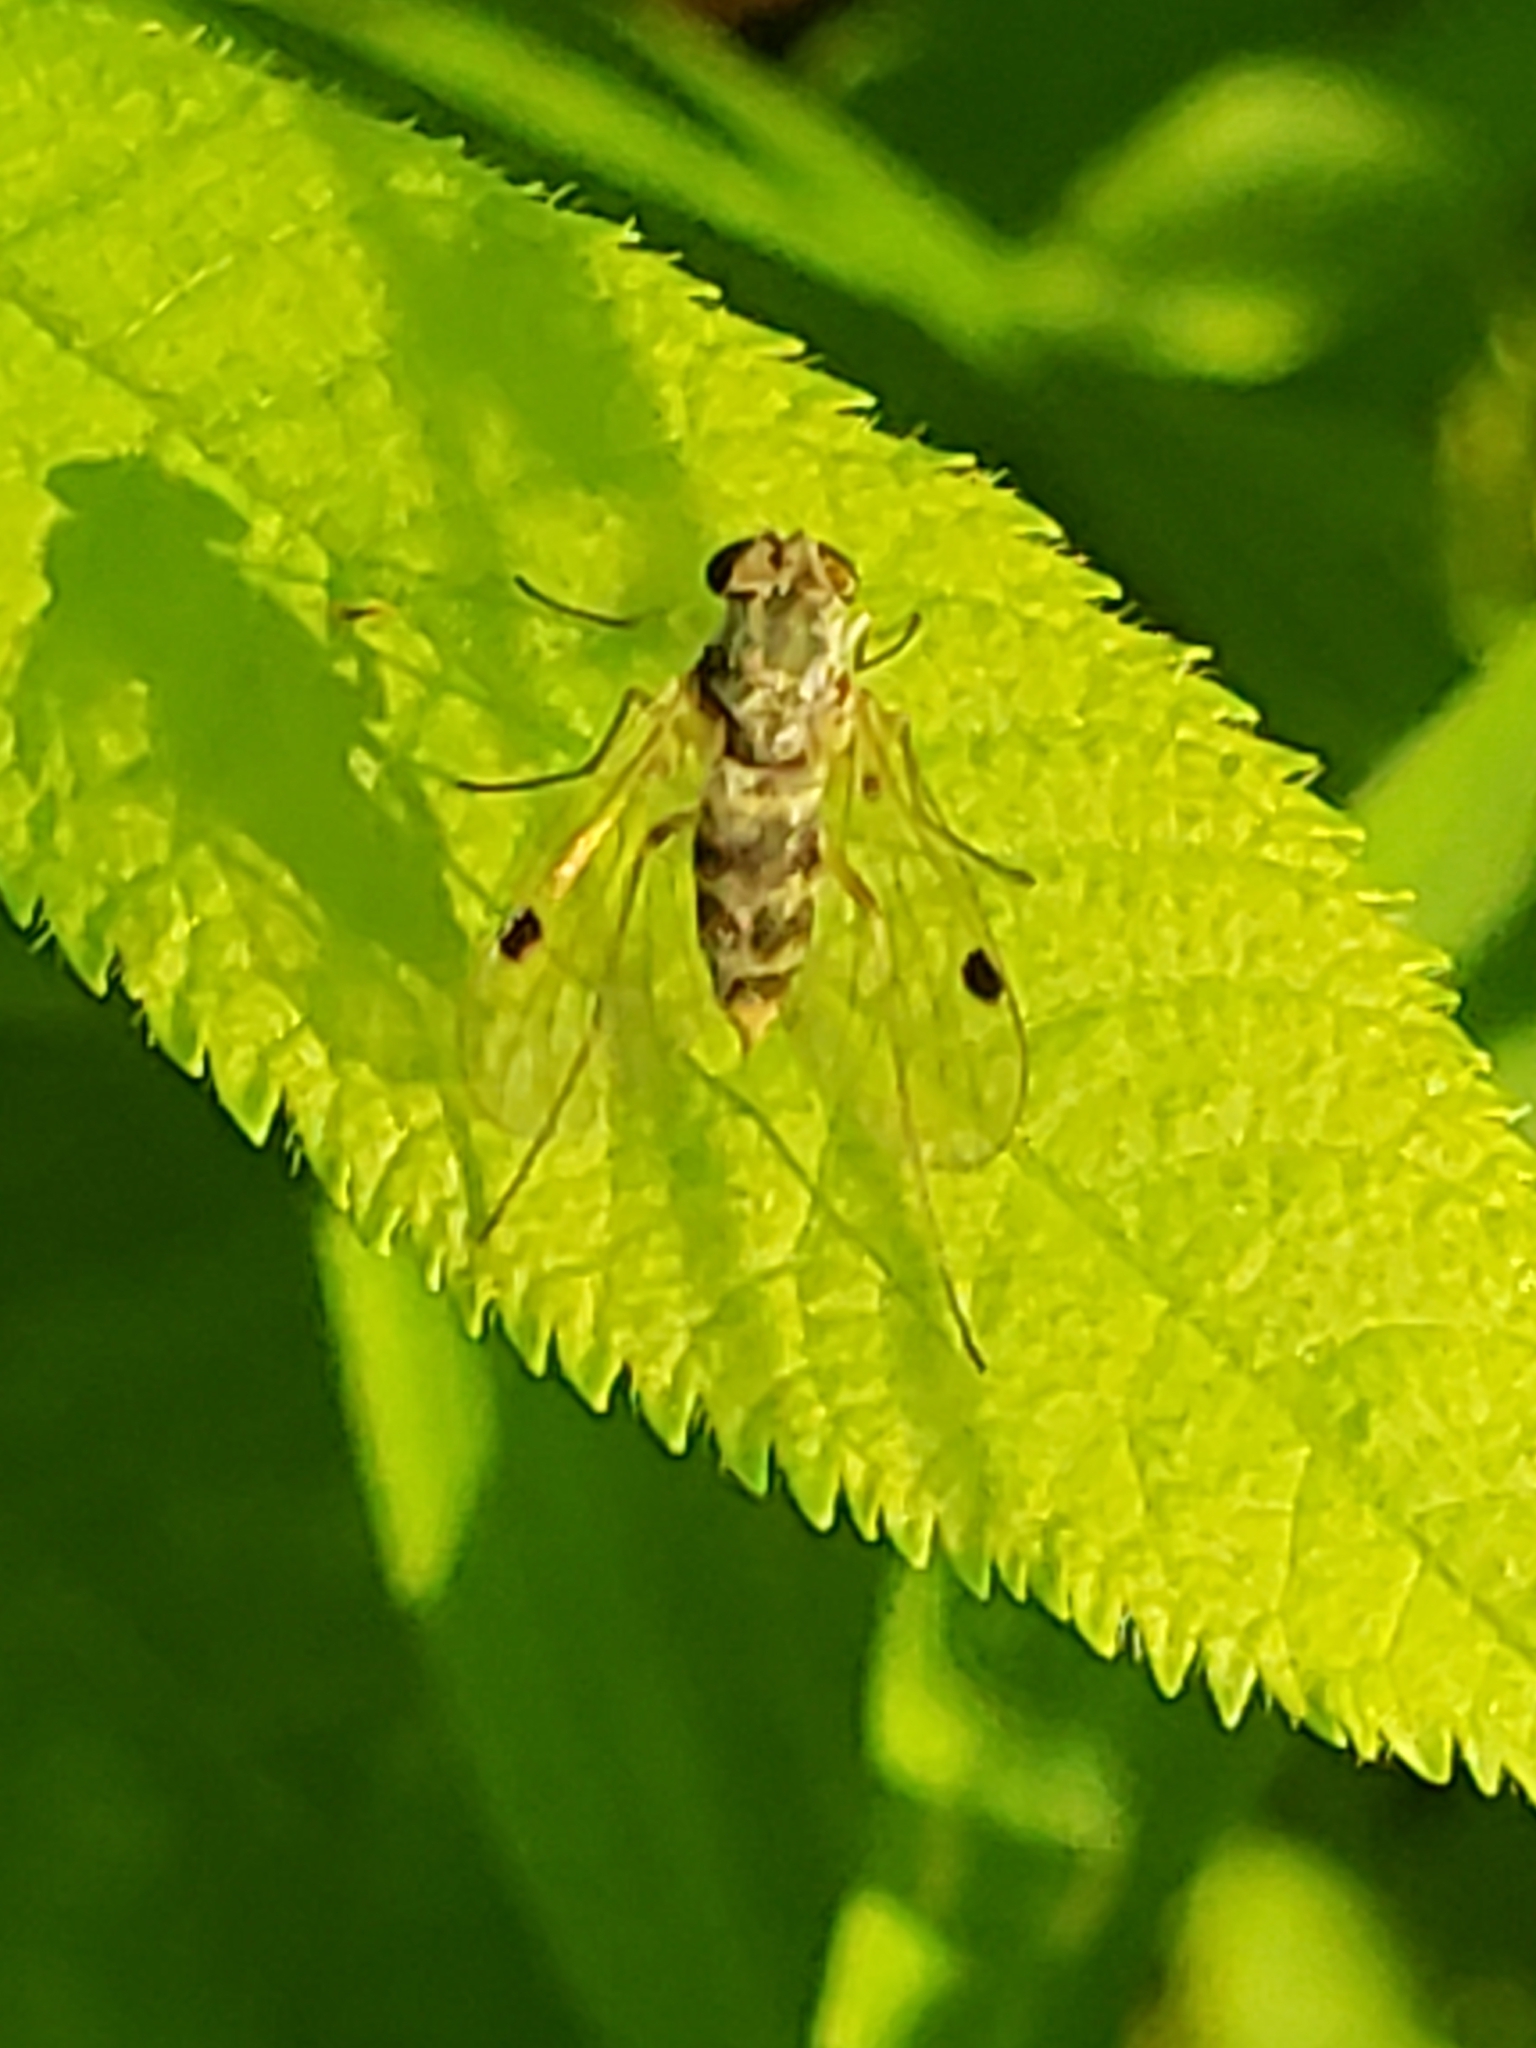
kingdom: Animalia
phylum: Arthropoda
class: Insecta
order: Diptera
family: Rhagionidae
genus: Chrysopilus
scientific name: Chrysopilus modestus
